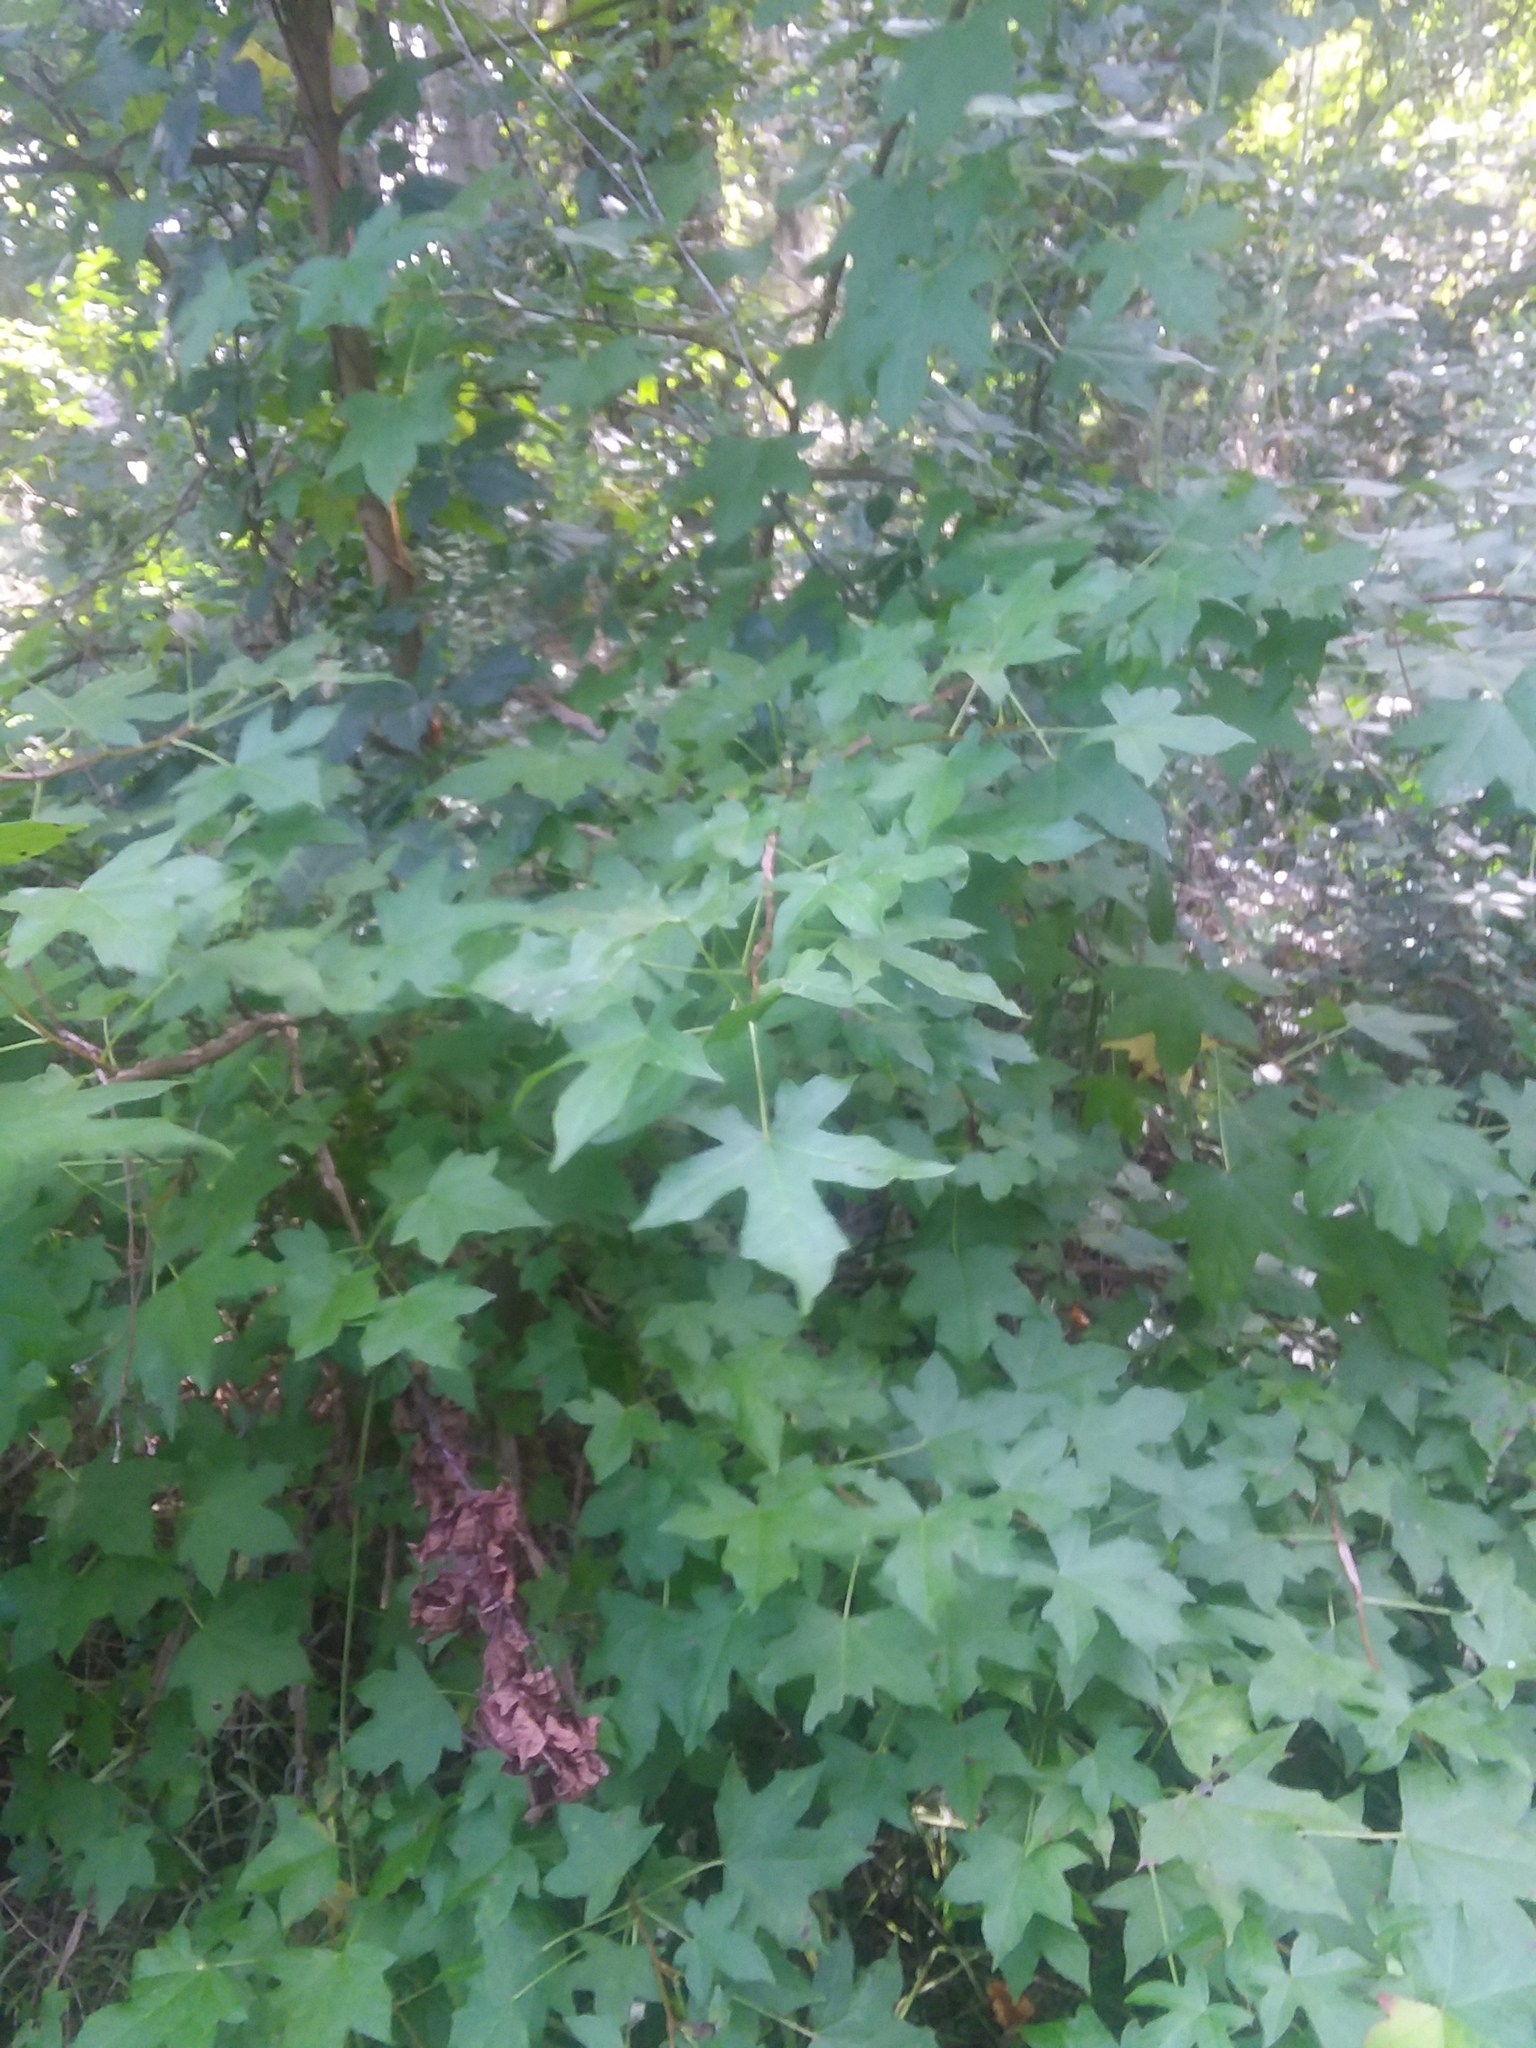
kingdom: Plantae
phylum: Tracheophyta
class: Magnoliopsida
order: Saxifragales
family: Altingiaceae
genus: Liquidambar
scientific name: Liquidambar styraciflua
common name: Sweet gum
